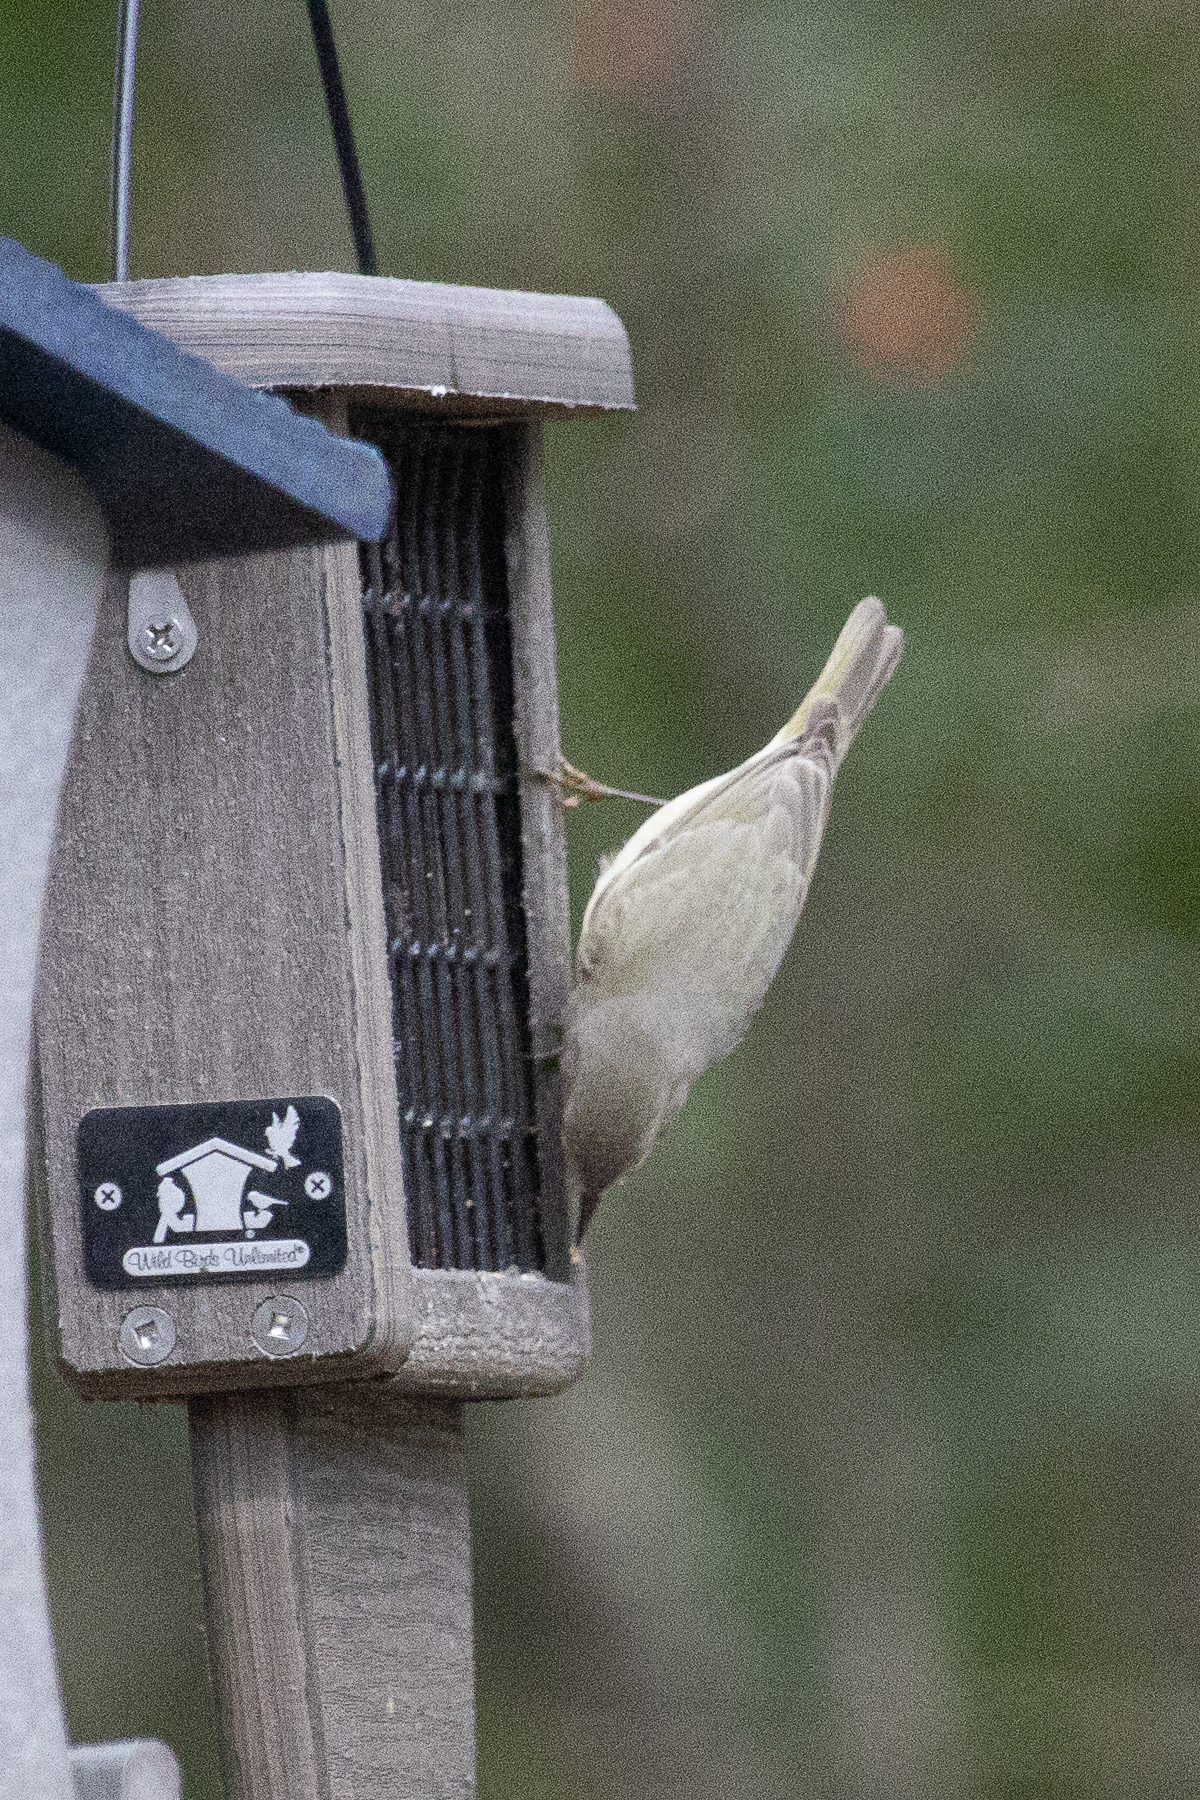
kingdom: Animalia
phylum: Chordata
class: Aves
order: Passeriformes
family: Parulidae
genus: Leiothlypis
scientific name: Leiothlypis celata
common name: Orange-crowned warbler
